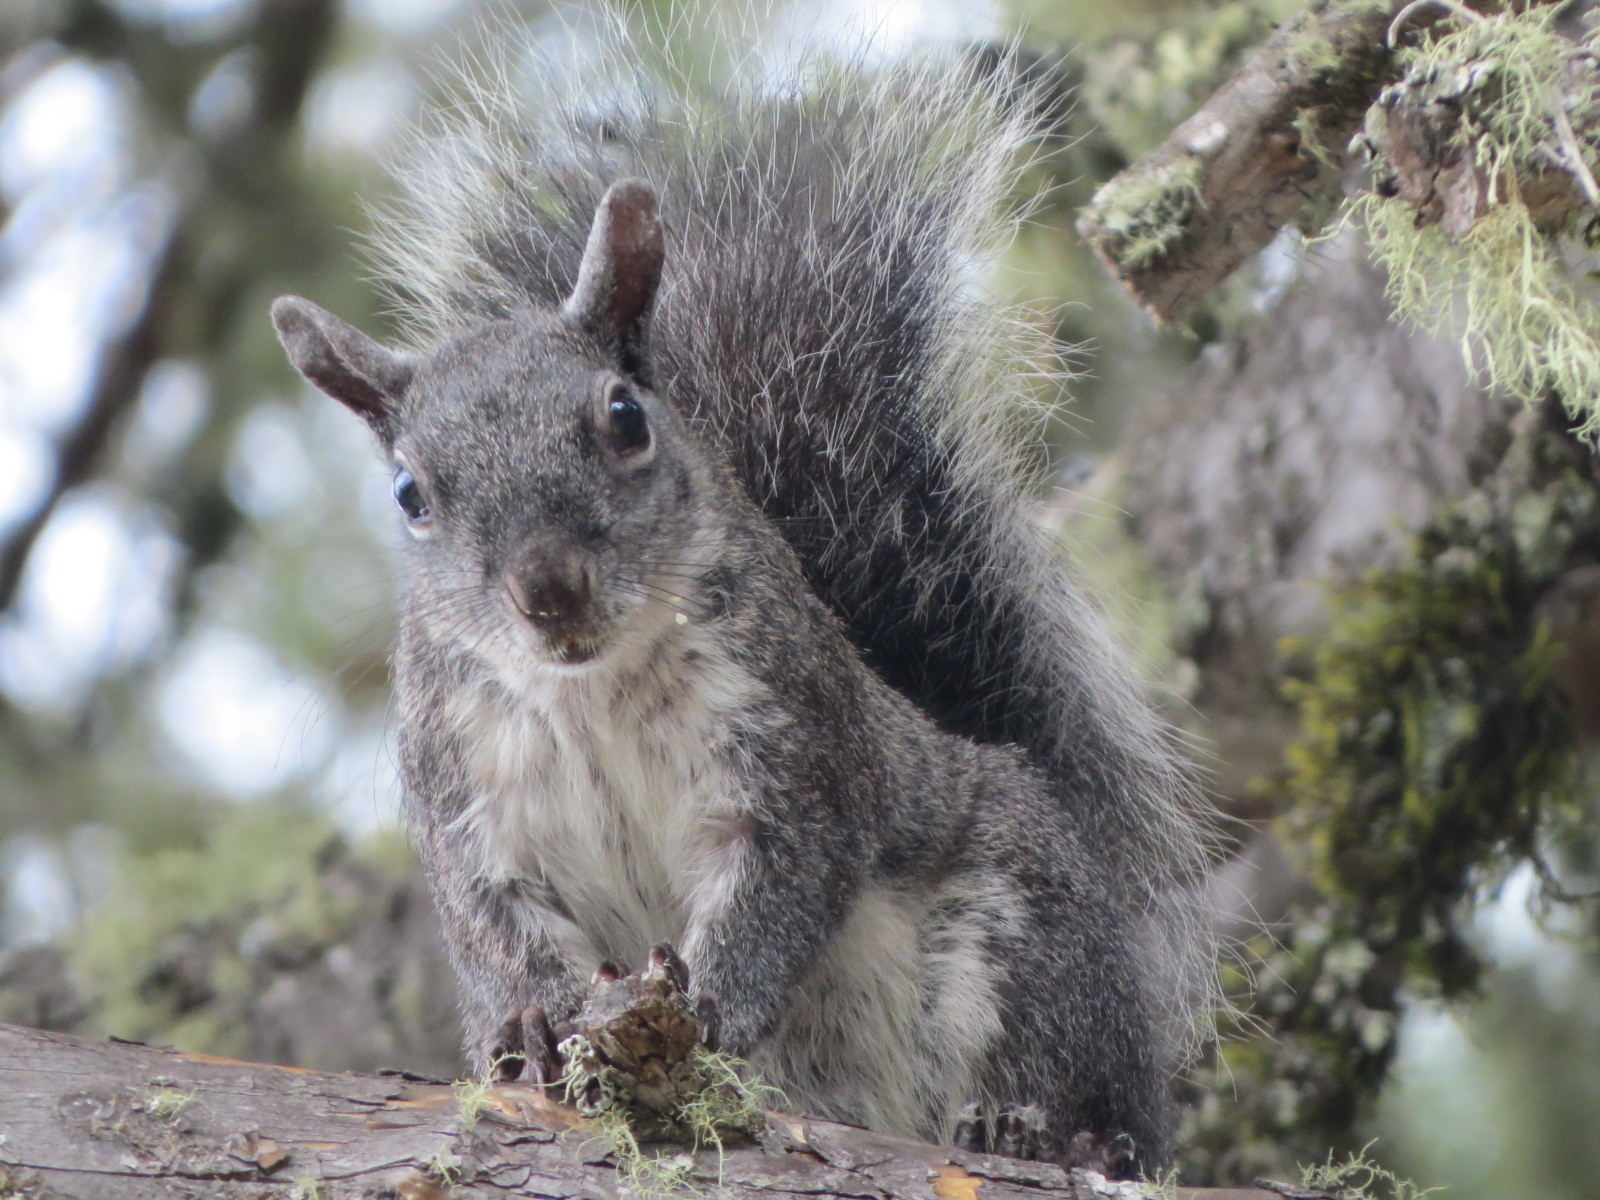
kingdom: Animalia
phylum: Chordata
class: Mammalia
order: Rodentia
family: Sciuridae
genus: Sciurus
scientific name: Sciurus griseus
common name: Western gray squirrel
